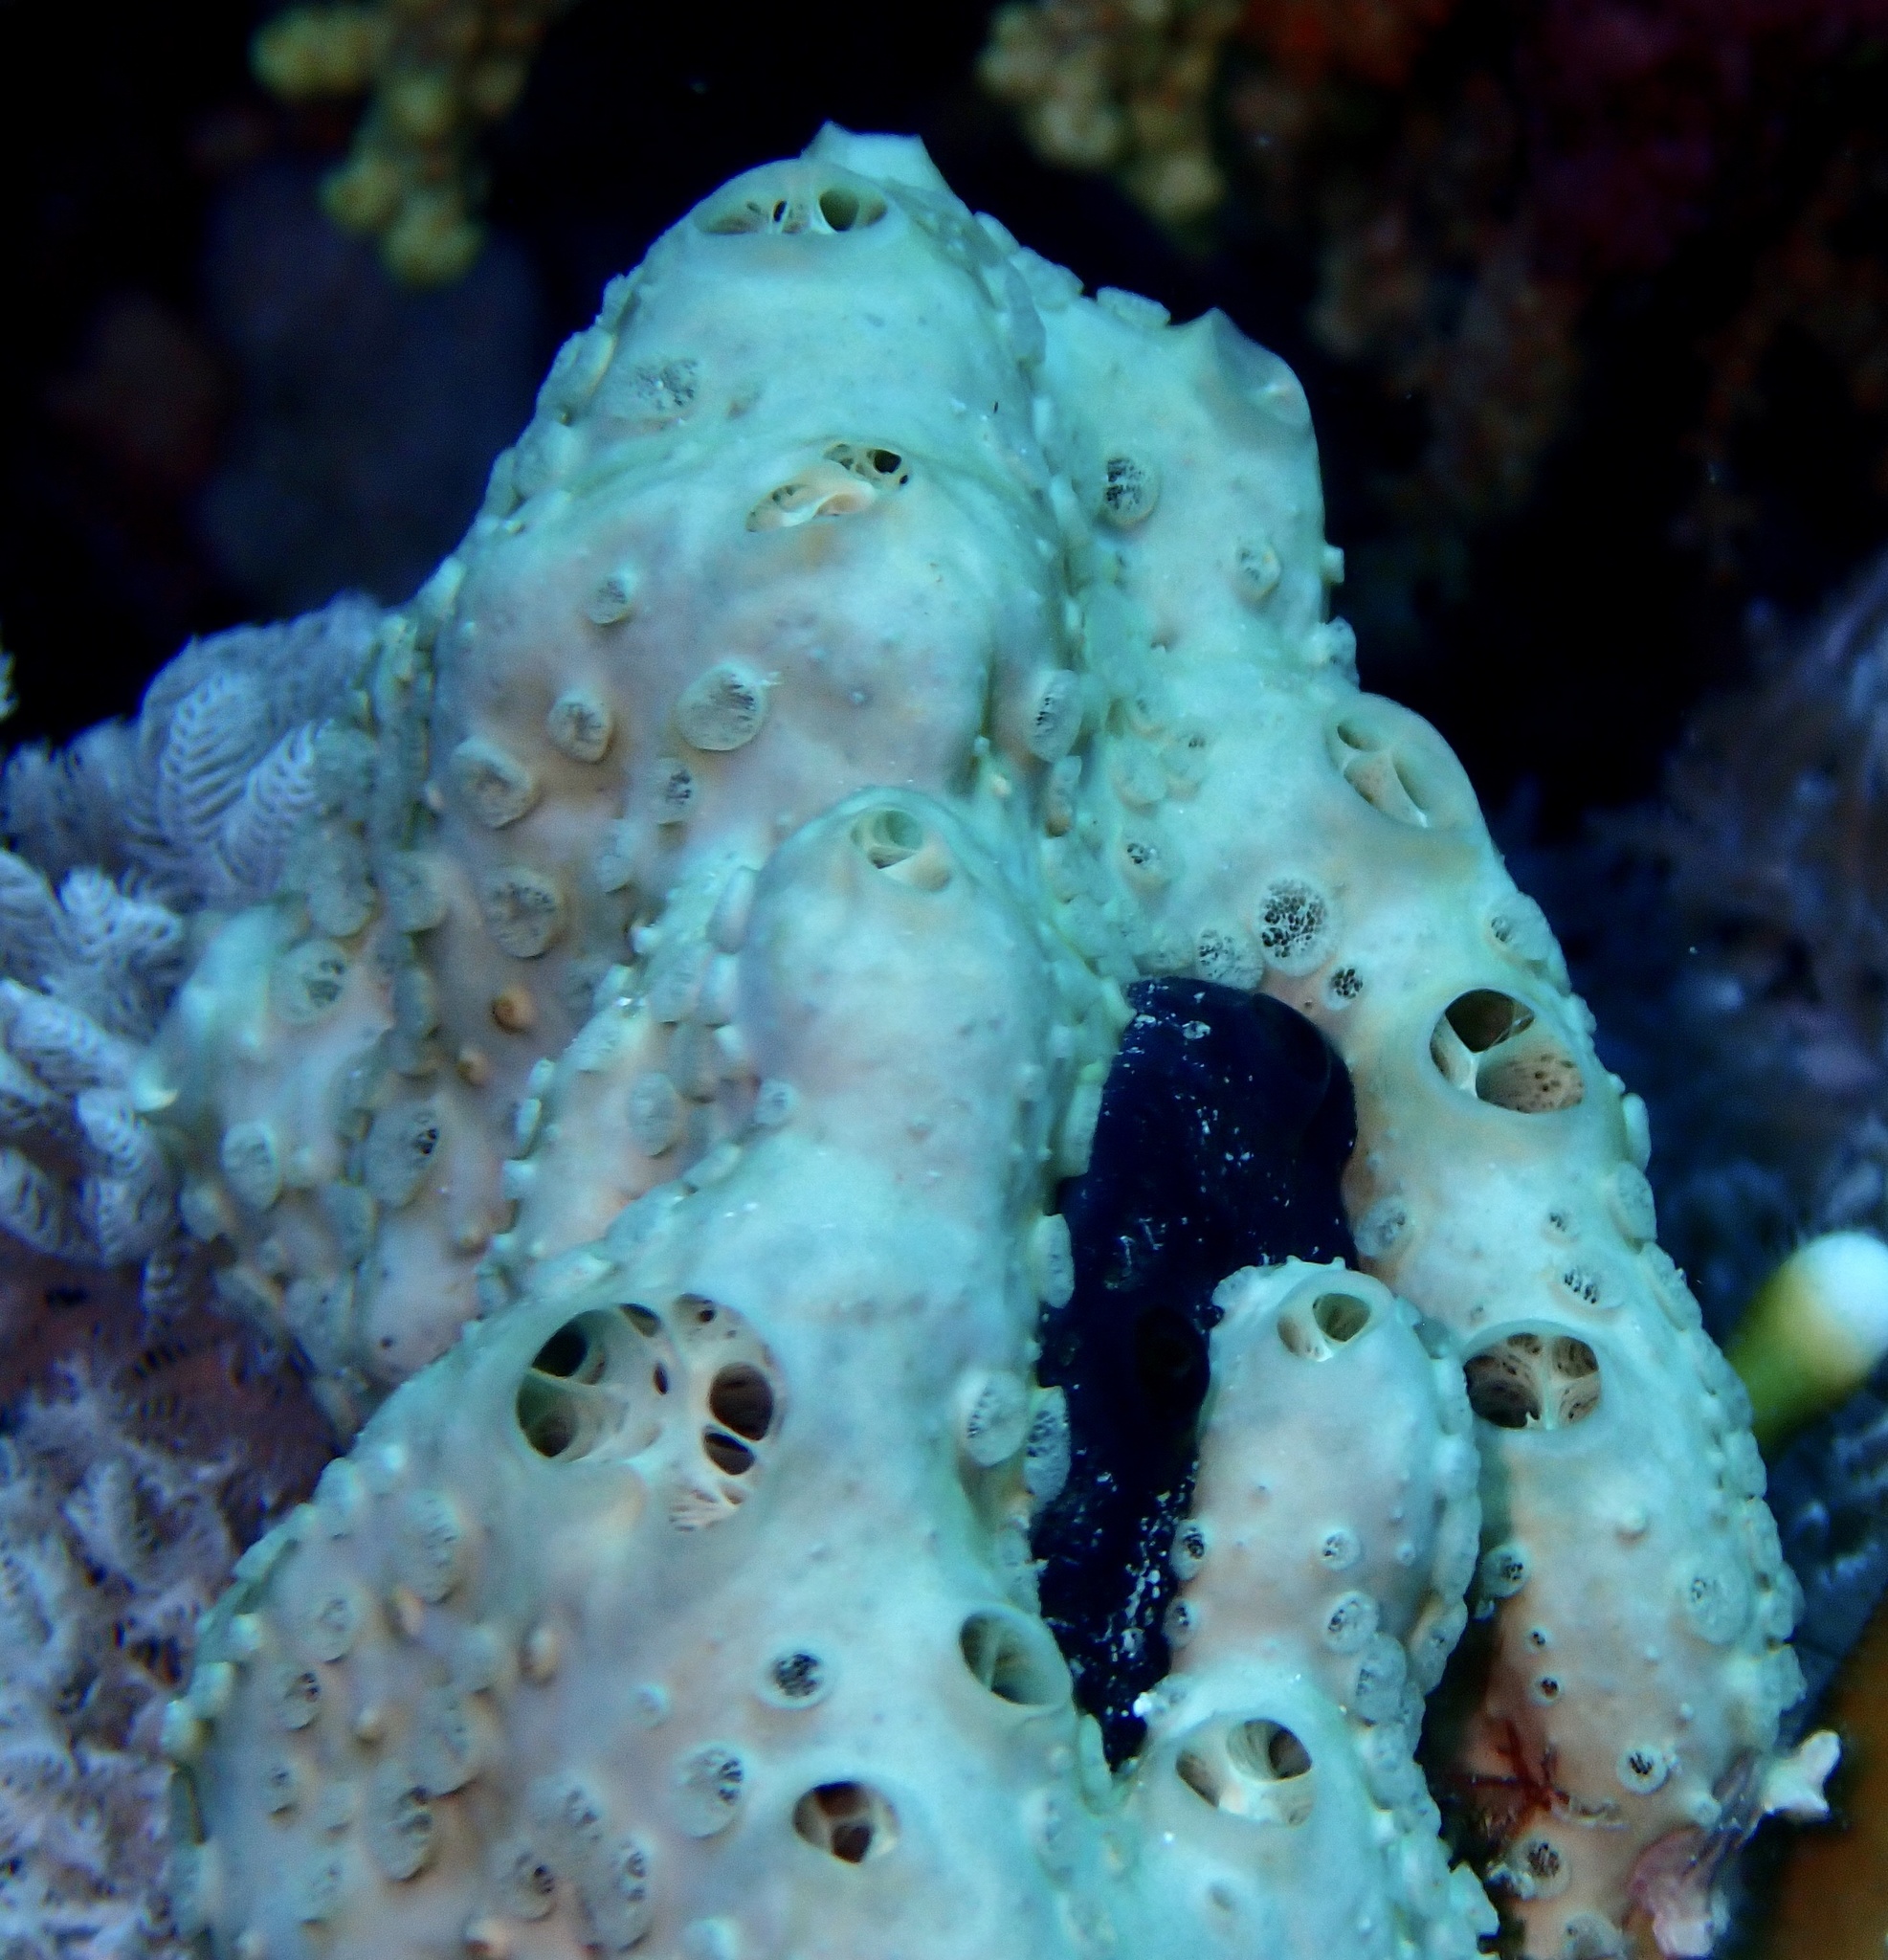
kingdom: Animalia
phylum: Porifera
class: Demospongiae
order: Poecilosclerida
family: Crellidae
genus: Crella
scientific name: Crella cyathophora
